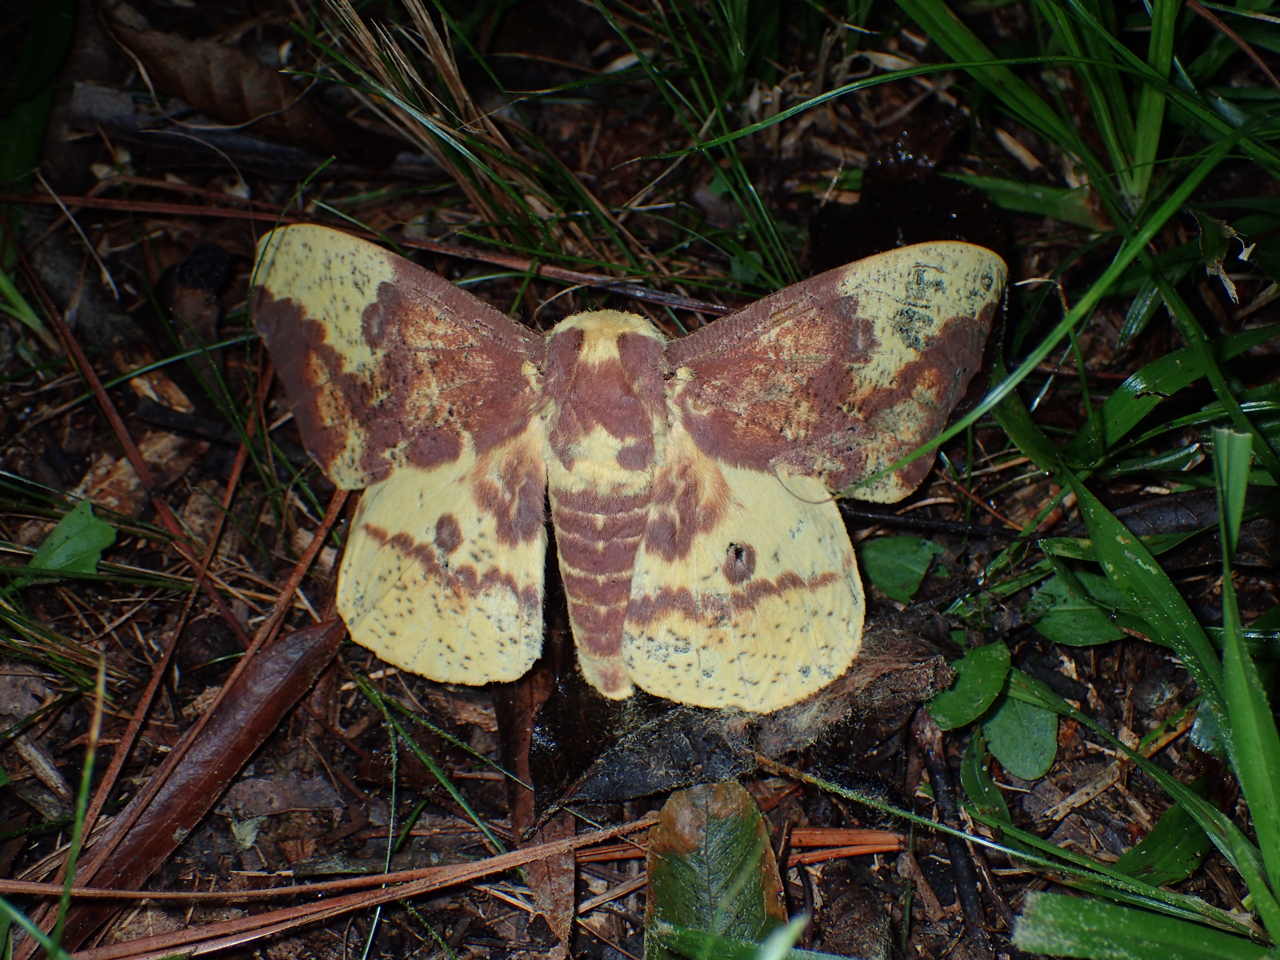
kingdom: Animalia
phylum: Arthropoda
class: Insecta
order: Lepidoptera
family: Saturniidae
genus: Eacles
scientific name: Eacles imperialis
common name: Imperial moth
